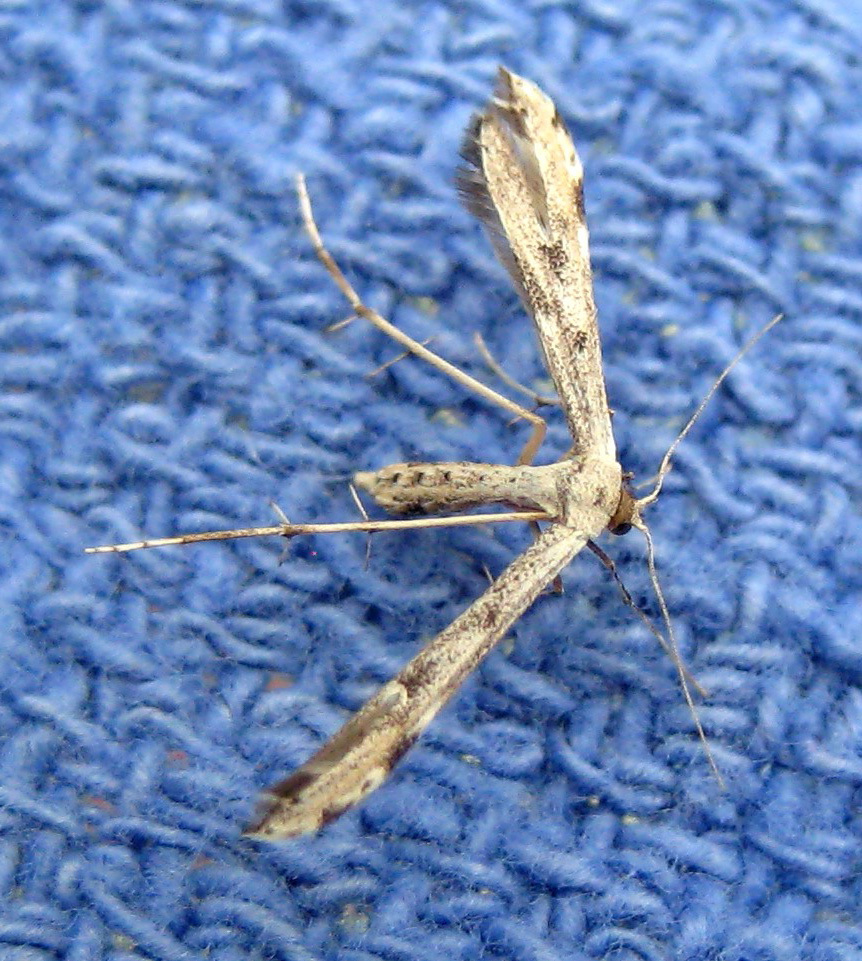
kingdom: Animalia
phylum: Arthropoda
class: Insecta
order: Lepidoptera
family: Pterophoridae
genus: Adaina
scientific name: Adaina ambrosiae
